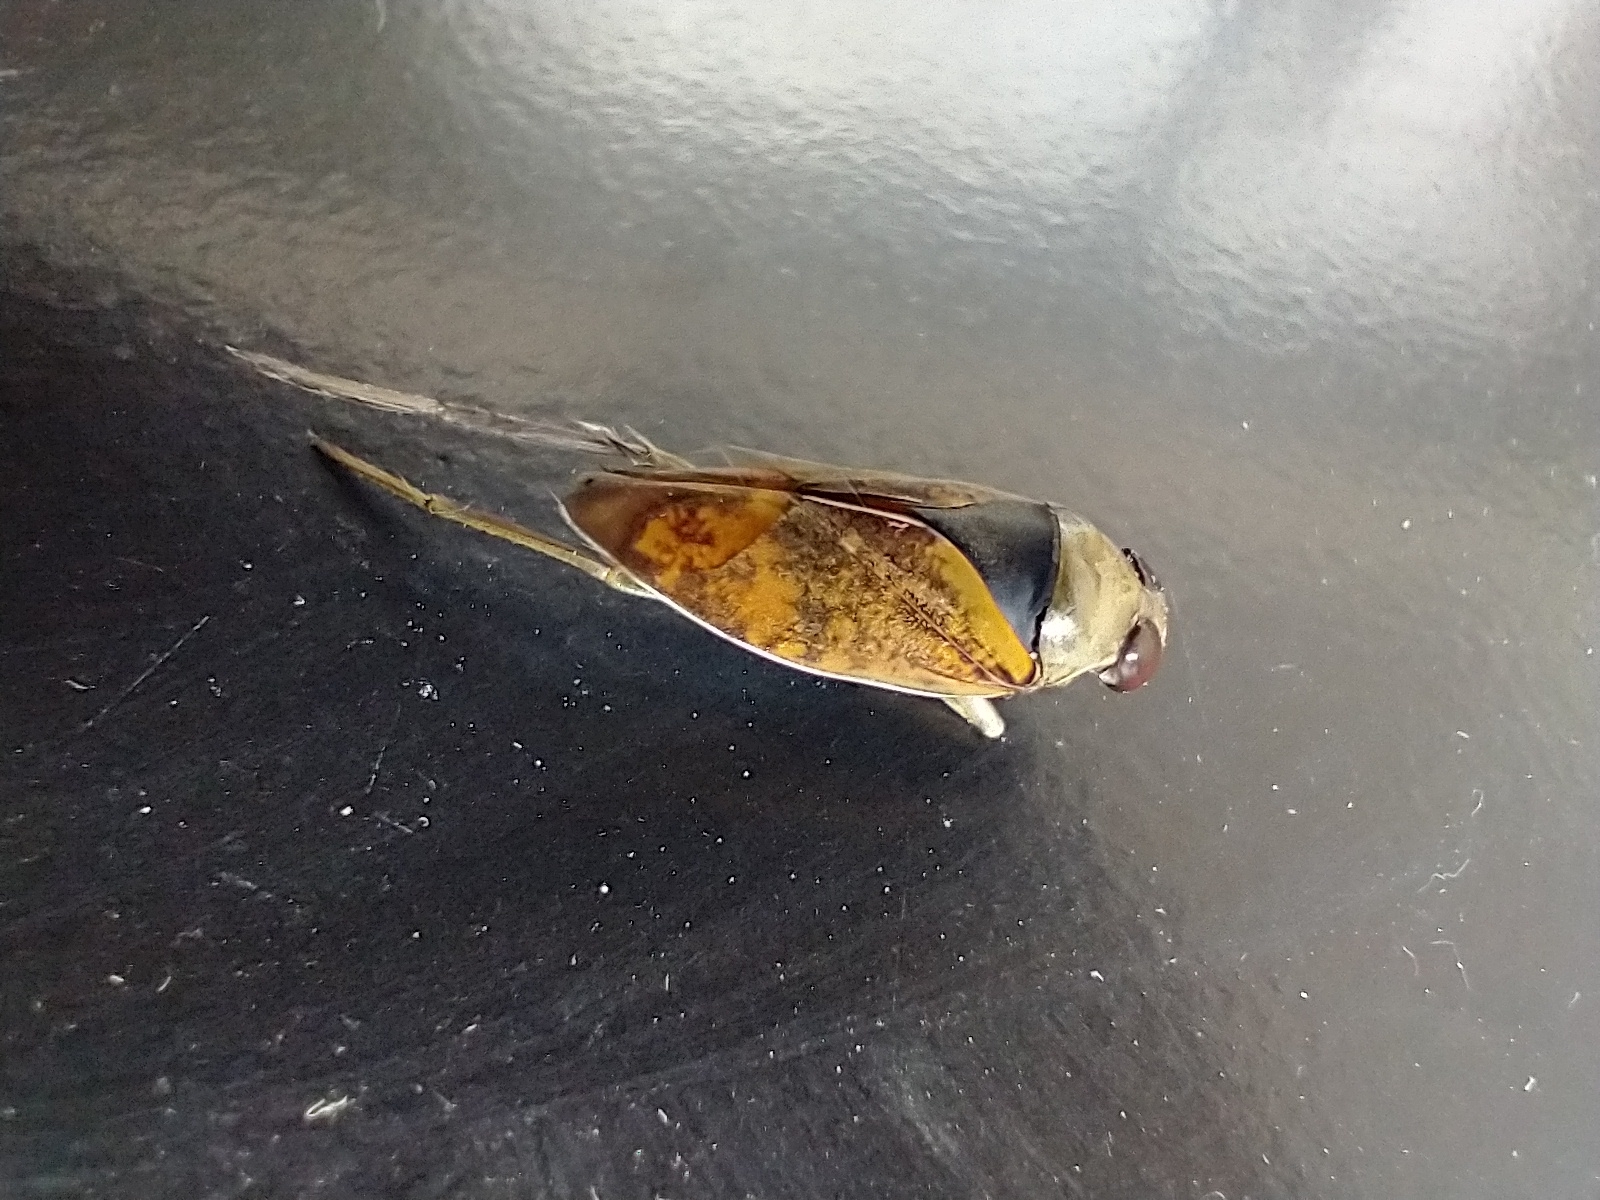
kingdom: Animalia
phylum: Arthropoda
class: Insecta
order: Hemiptera
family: Notonectidae
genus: Notonecta
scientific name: Notonecta maculata
